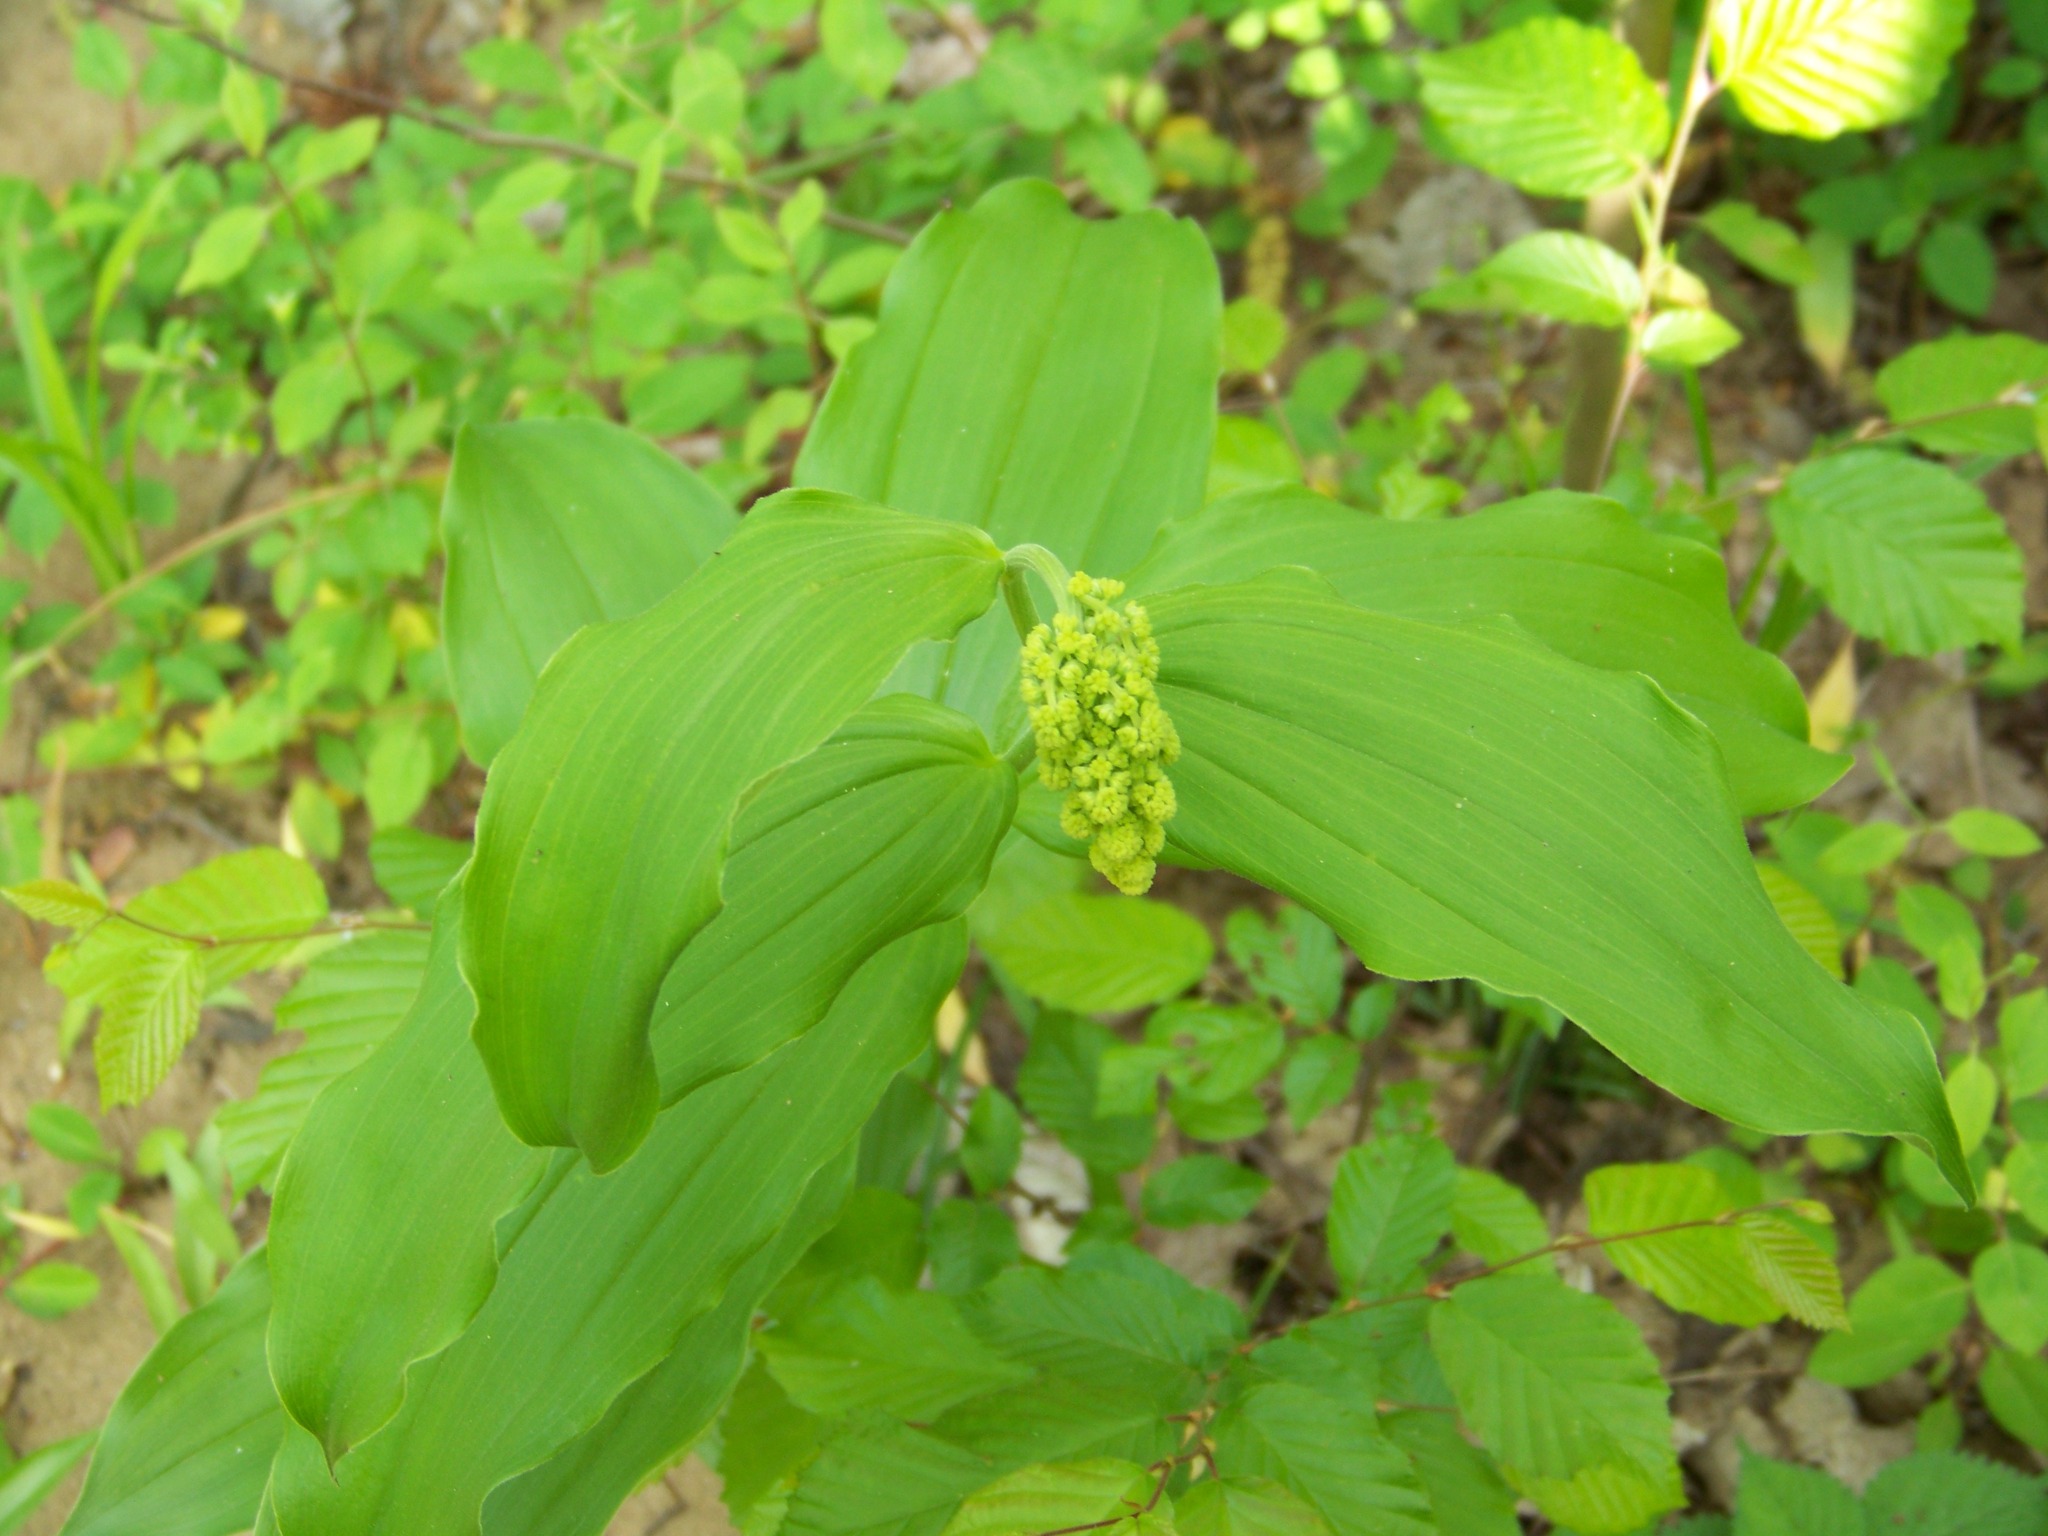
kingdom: Plantae
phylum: Tracheophyta
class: Liliopsida
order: Asparagales
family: Asparagaceae
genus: Maianthemum
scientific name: Maianthemum racemosum
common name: False spikenard
